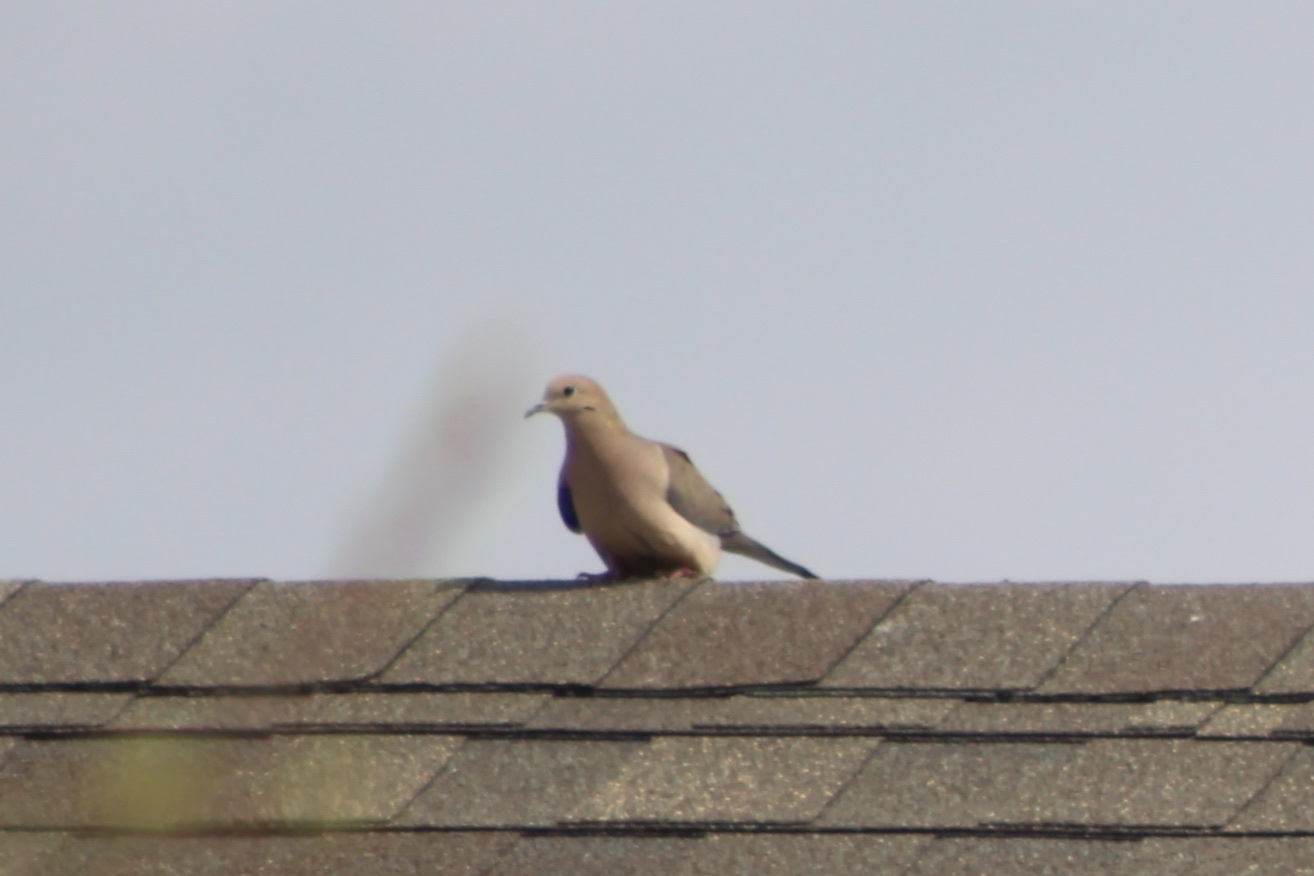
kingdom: Animalia
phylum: Chordata
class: Aves
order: Columbiformes
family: Columbidae
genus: Zenaida
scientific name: Zenaida macroura
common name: Mourning dove
